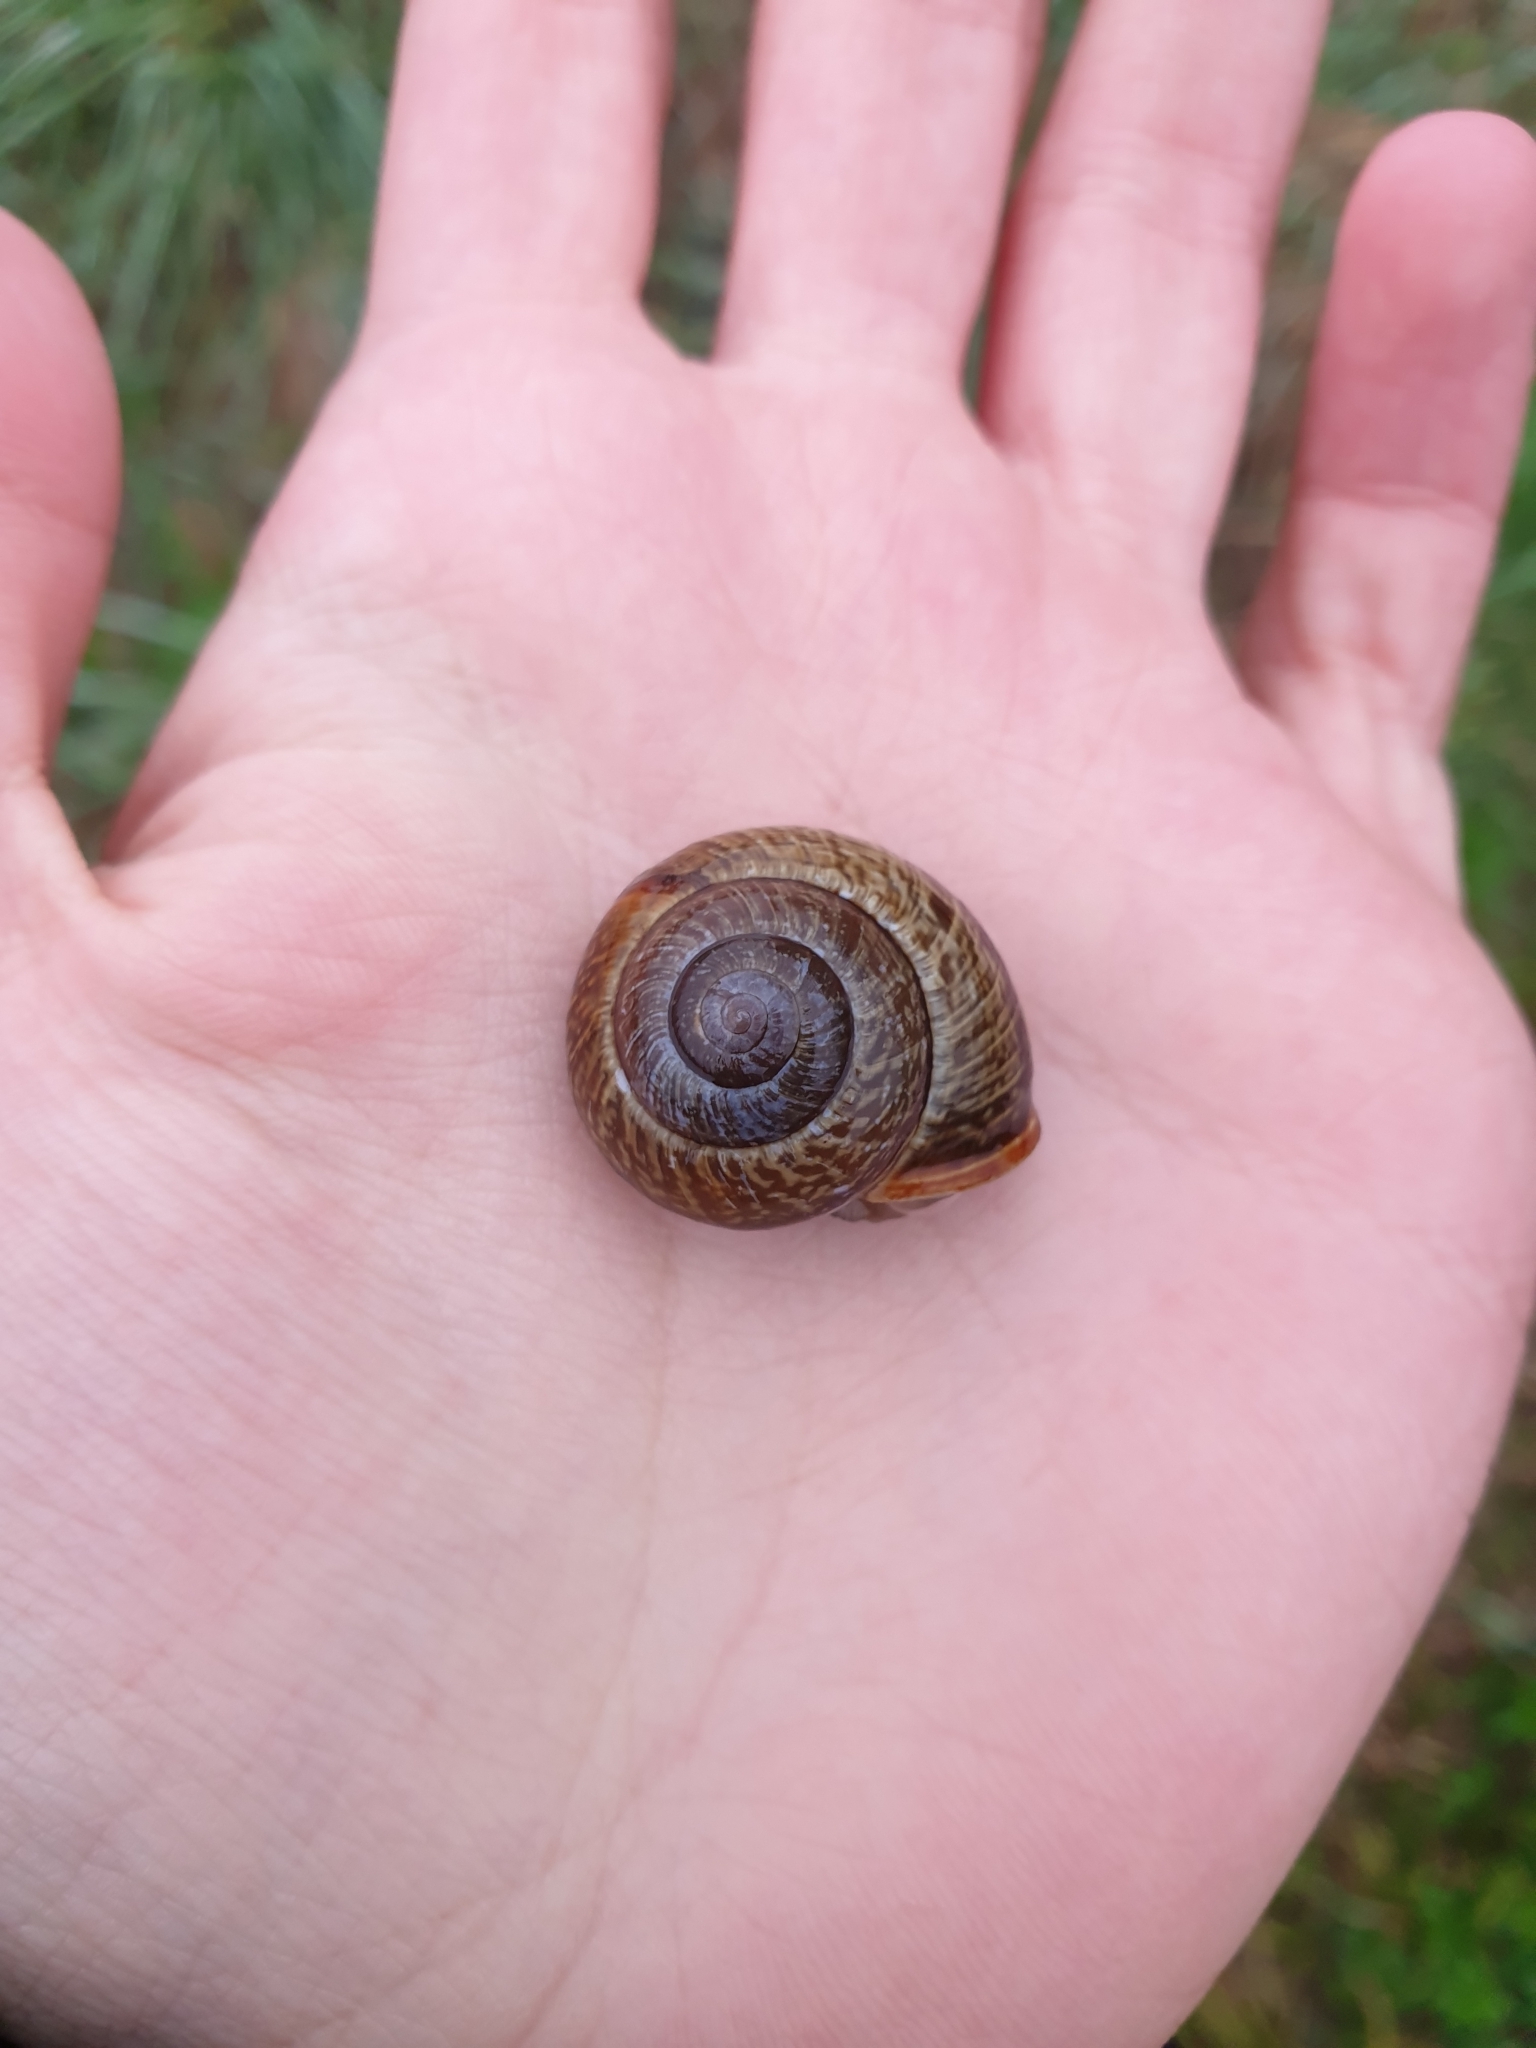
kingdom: Animalia
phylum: Mollusca
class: Gastropoda
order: Stylommatophora
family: Helicidae
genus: Arianta
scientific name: Arianta arbustorum
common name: Copse snail
